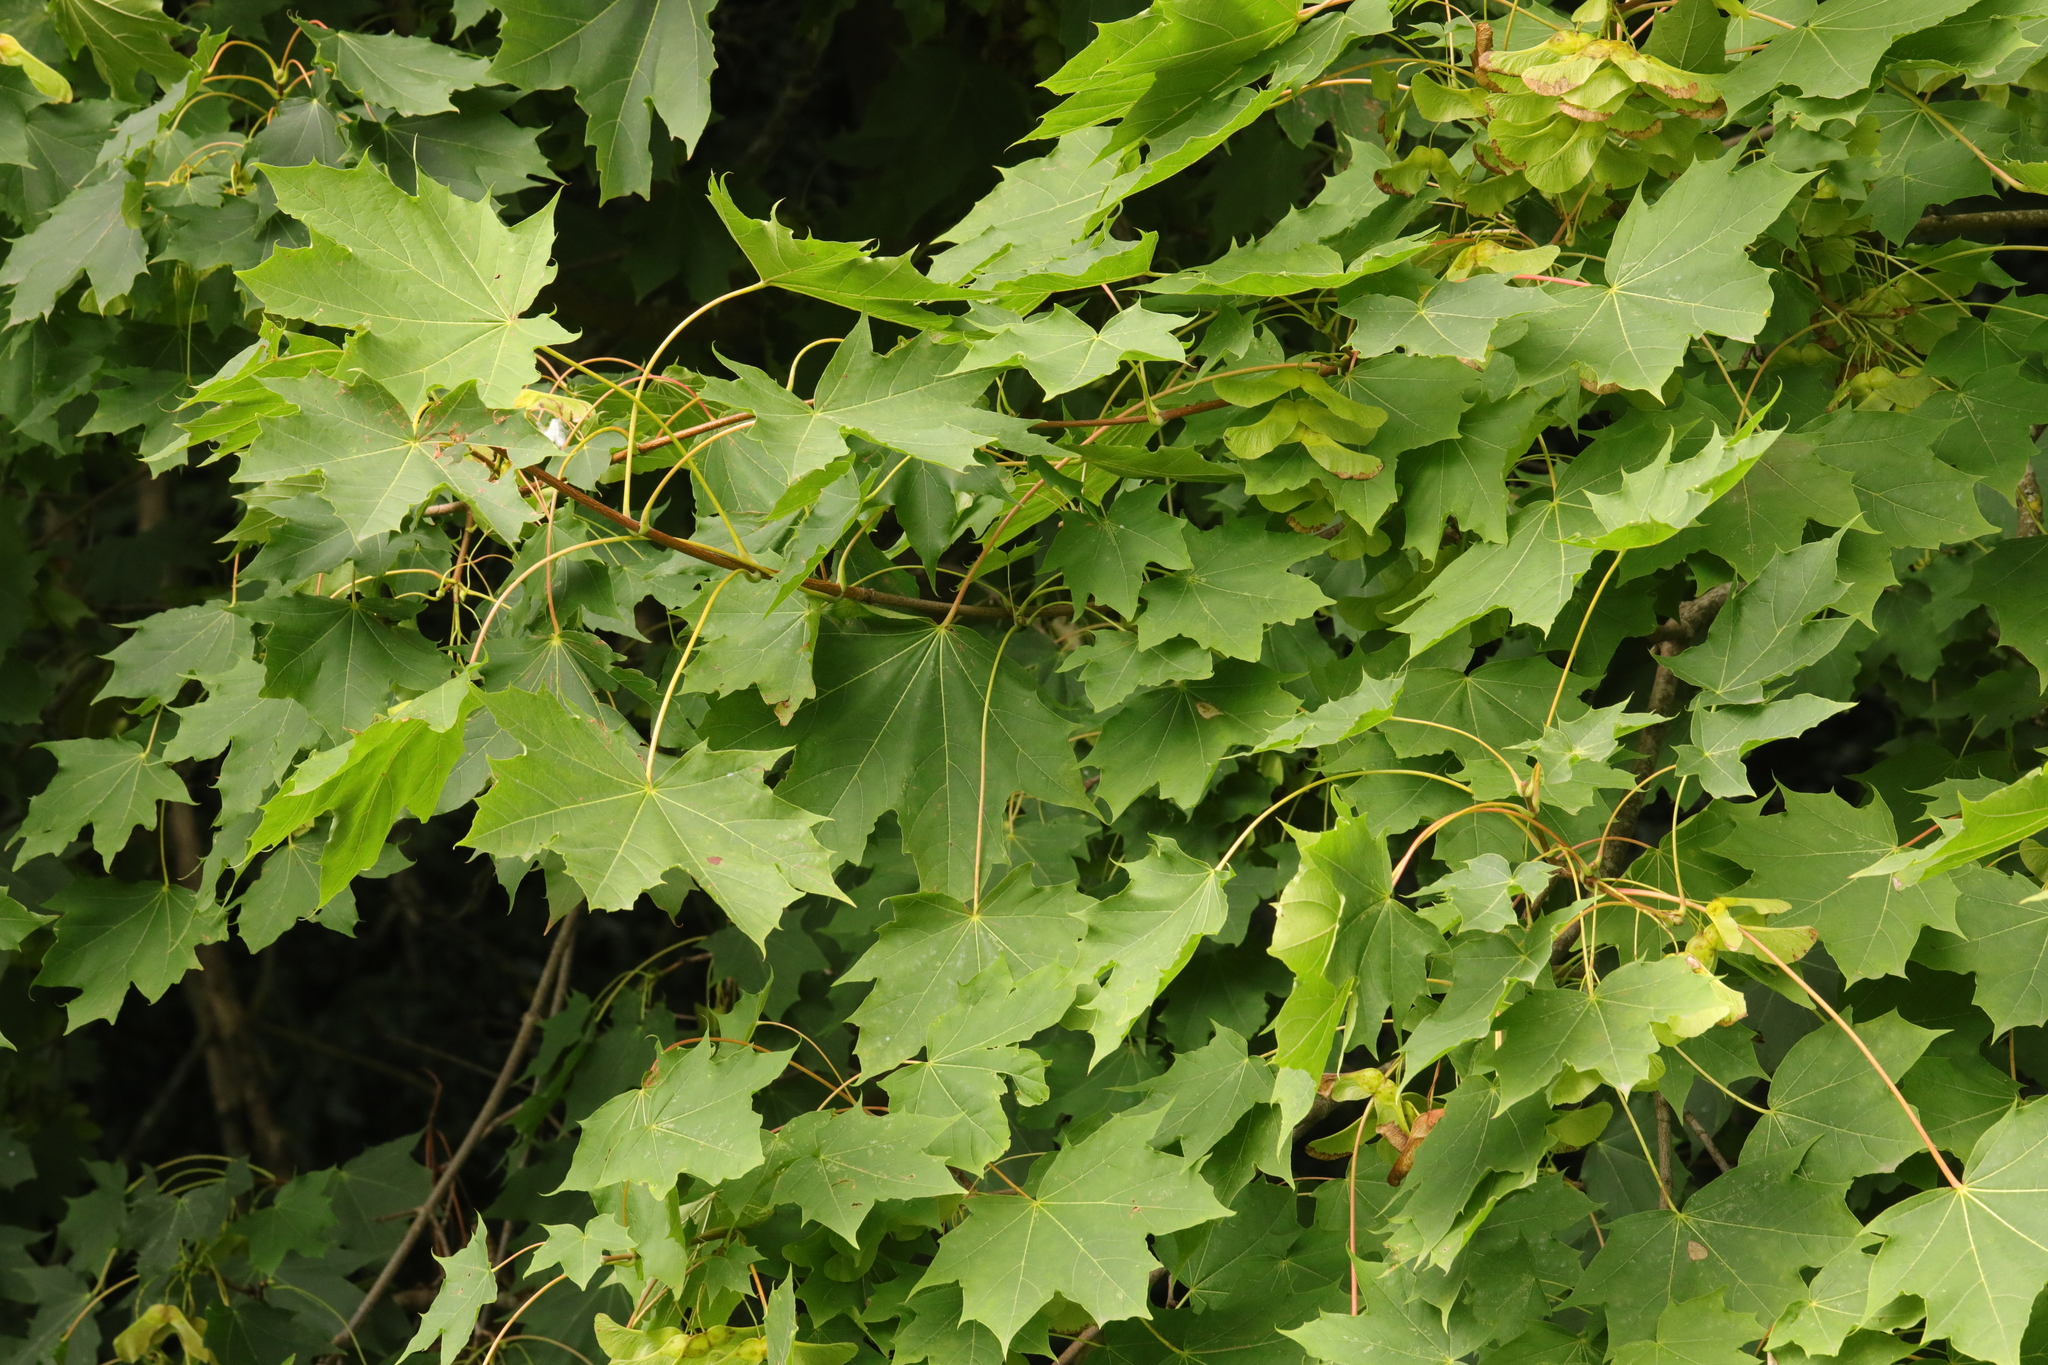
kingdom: Plantae
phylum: Tracheophyta
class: Magnoliopsida
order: Sapindales
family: Sapindaceae
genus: Acer
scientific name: Acer platanoides
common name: Norway maple
